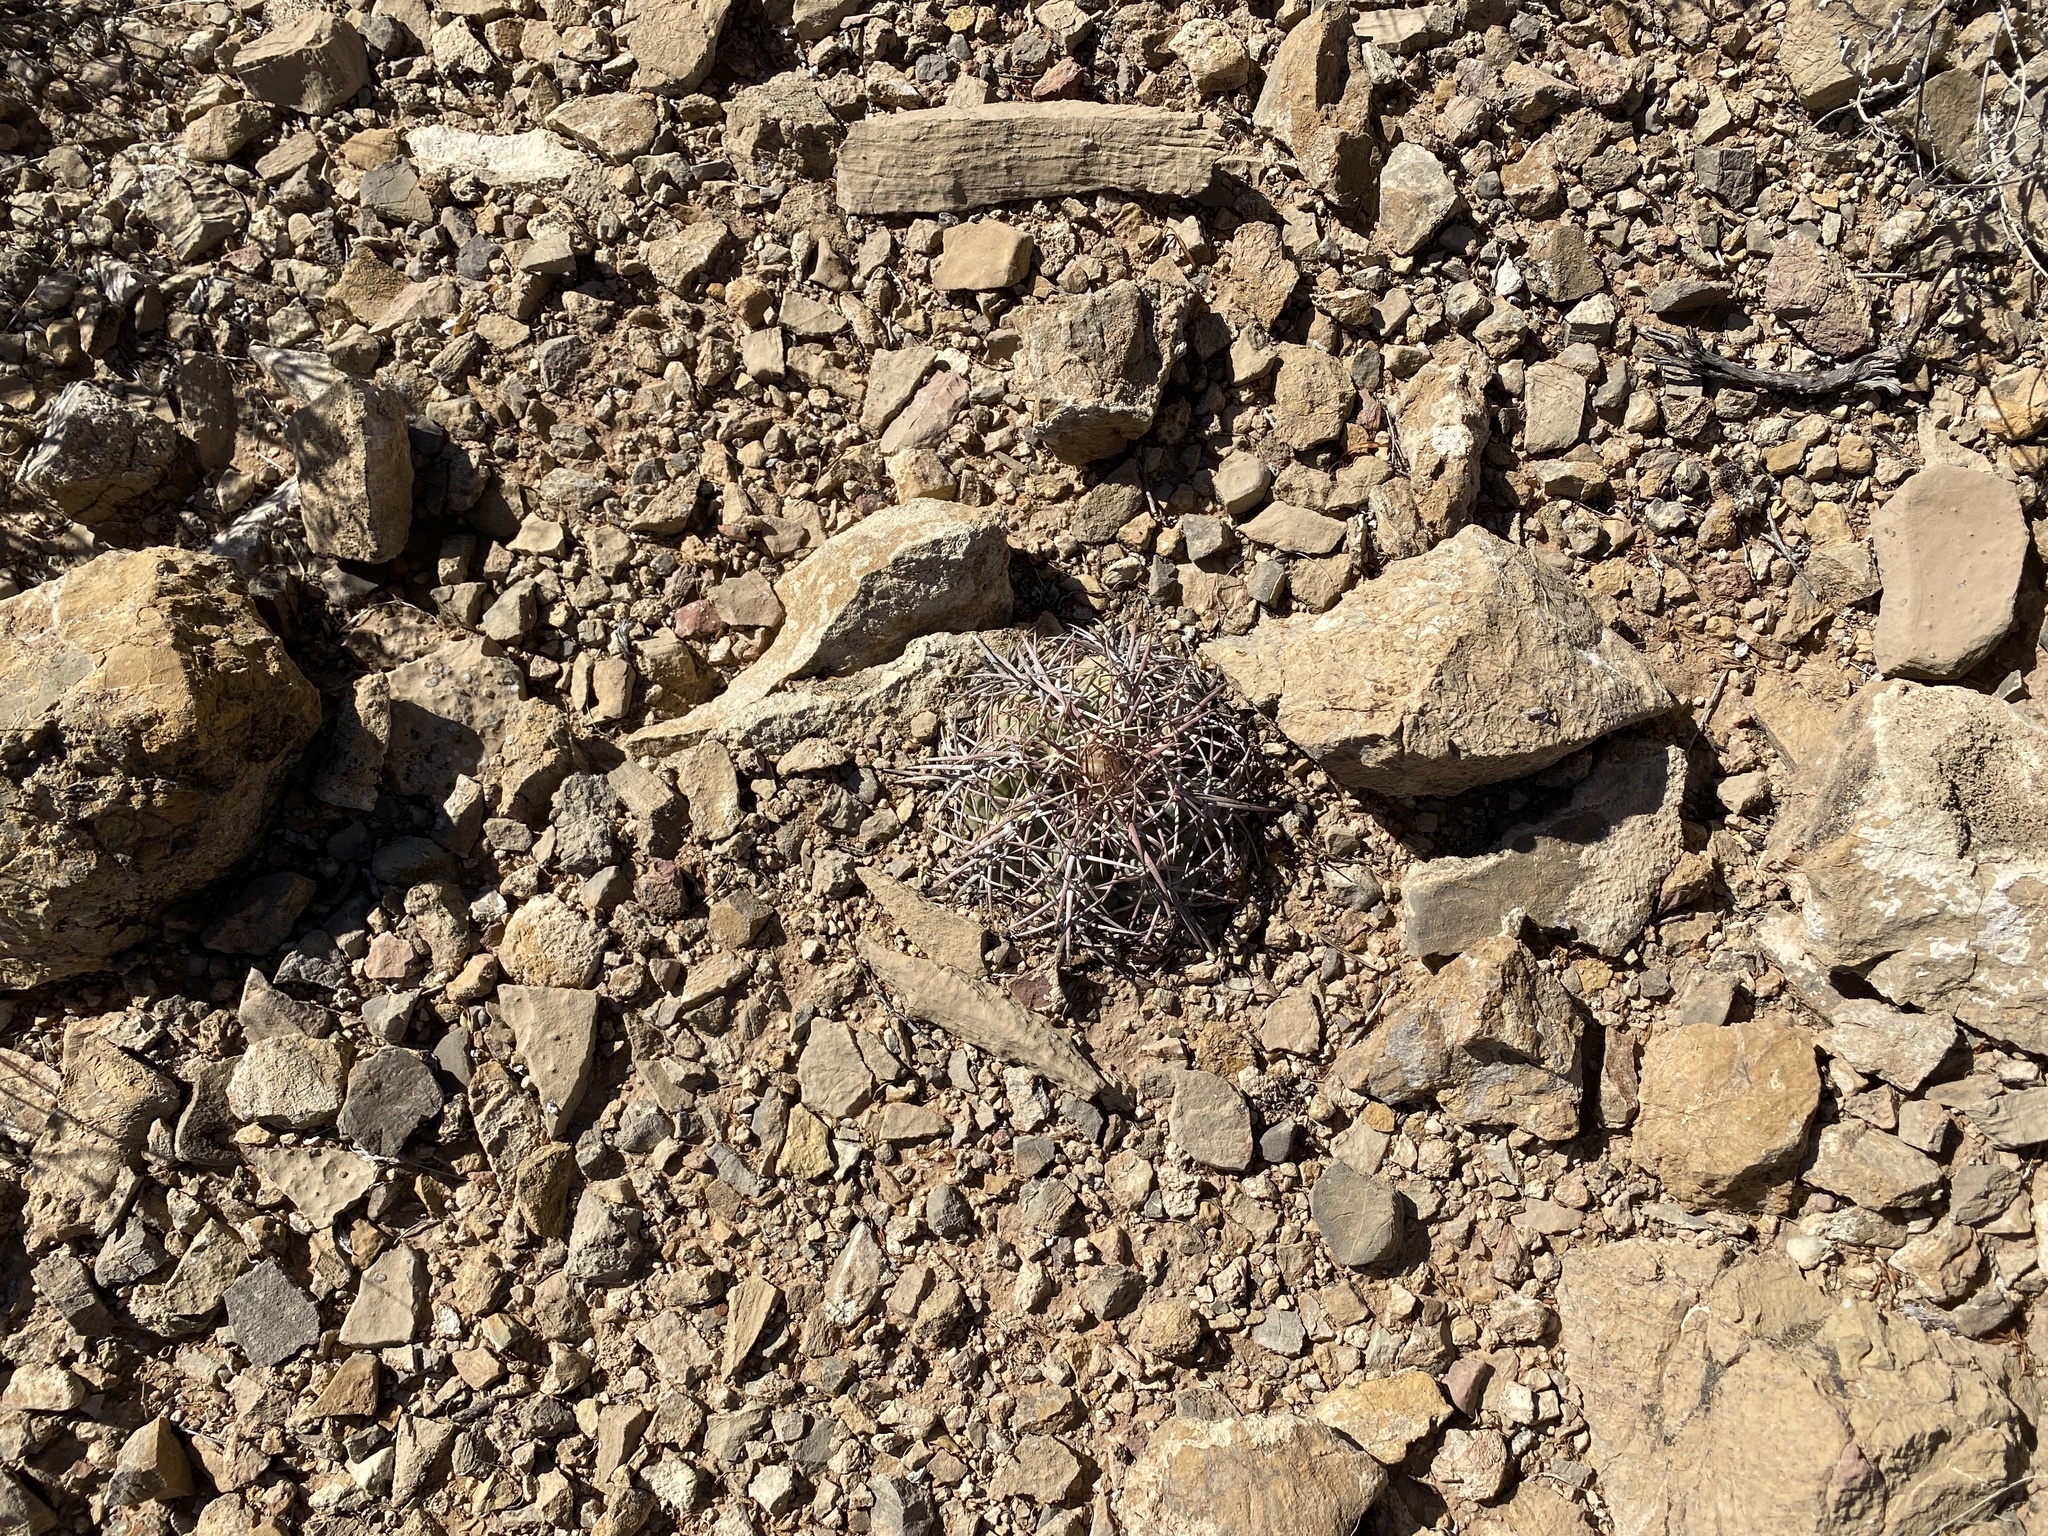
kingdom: Plantae
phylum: Tracheophyta
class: Magnoliopsida
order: Caryophyllales
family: Cactaceae
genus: Echinocactus
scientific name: Echinocactus horizonthalonius
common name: Devilshead
